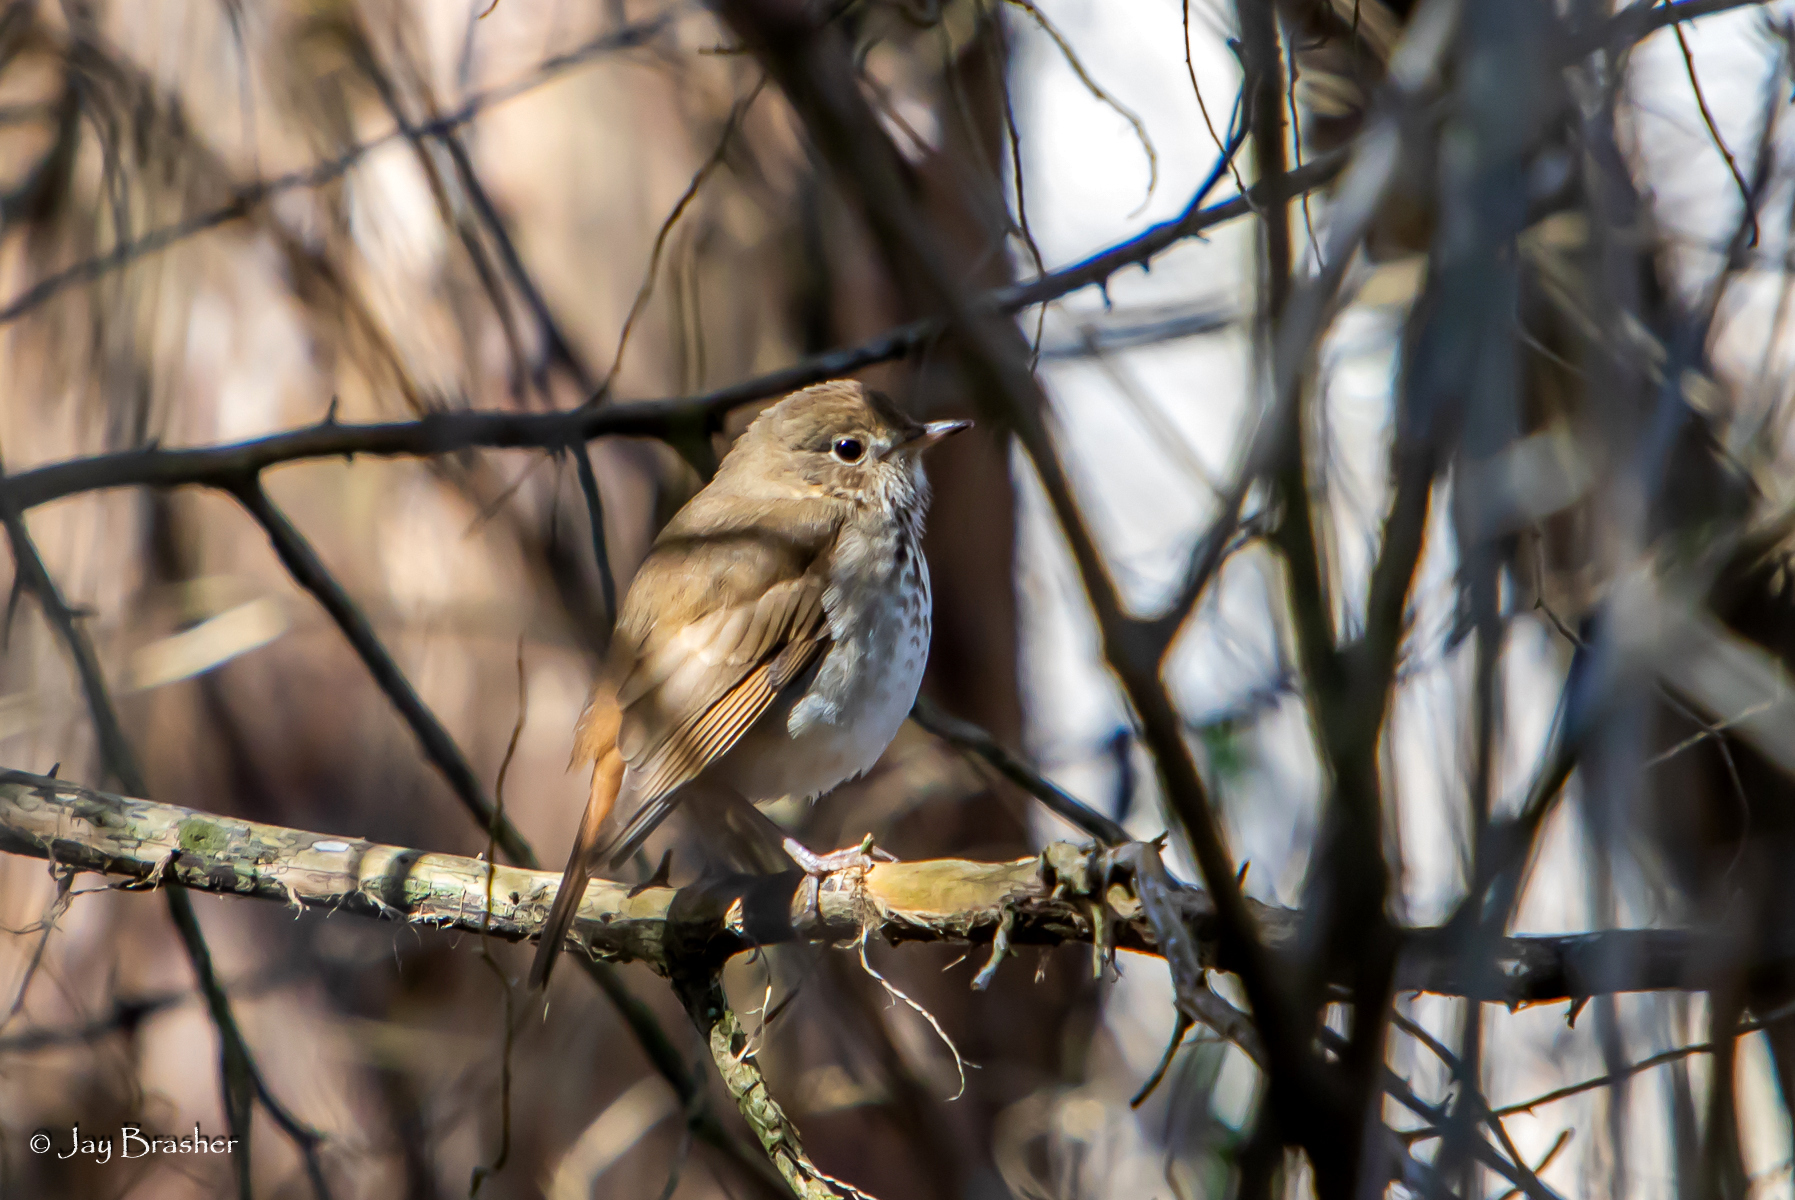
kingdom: Animalia
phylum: Chordata
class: Aves
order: Passeriformes
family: Turdidae
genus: Catharus
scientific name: Catharus guttatus
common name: Hermit thrush
